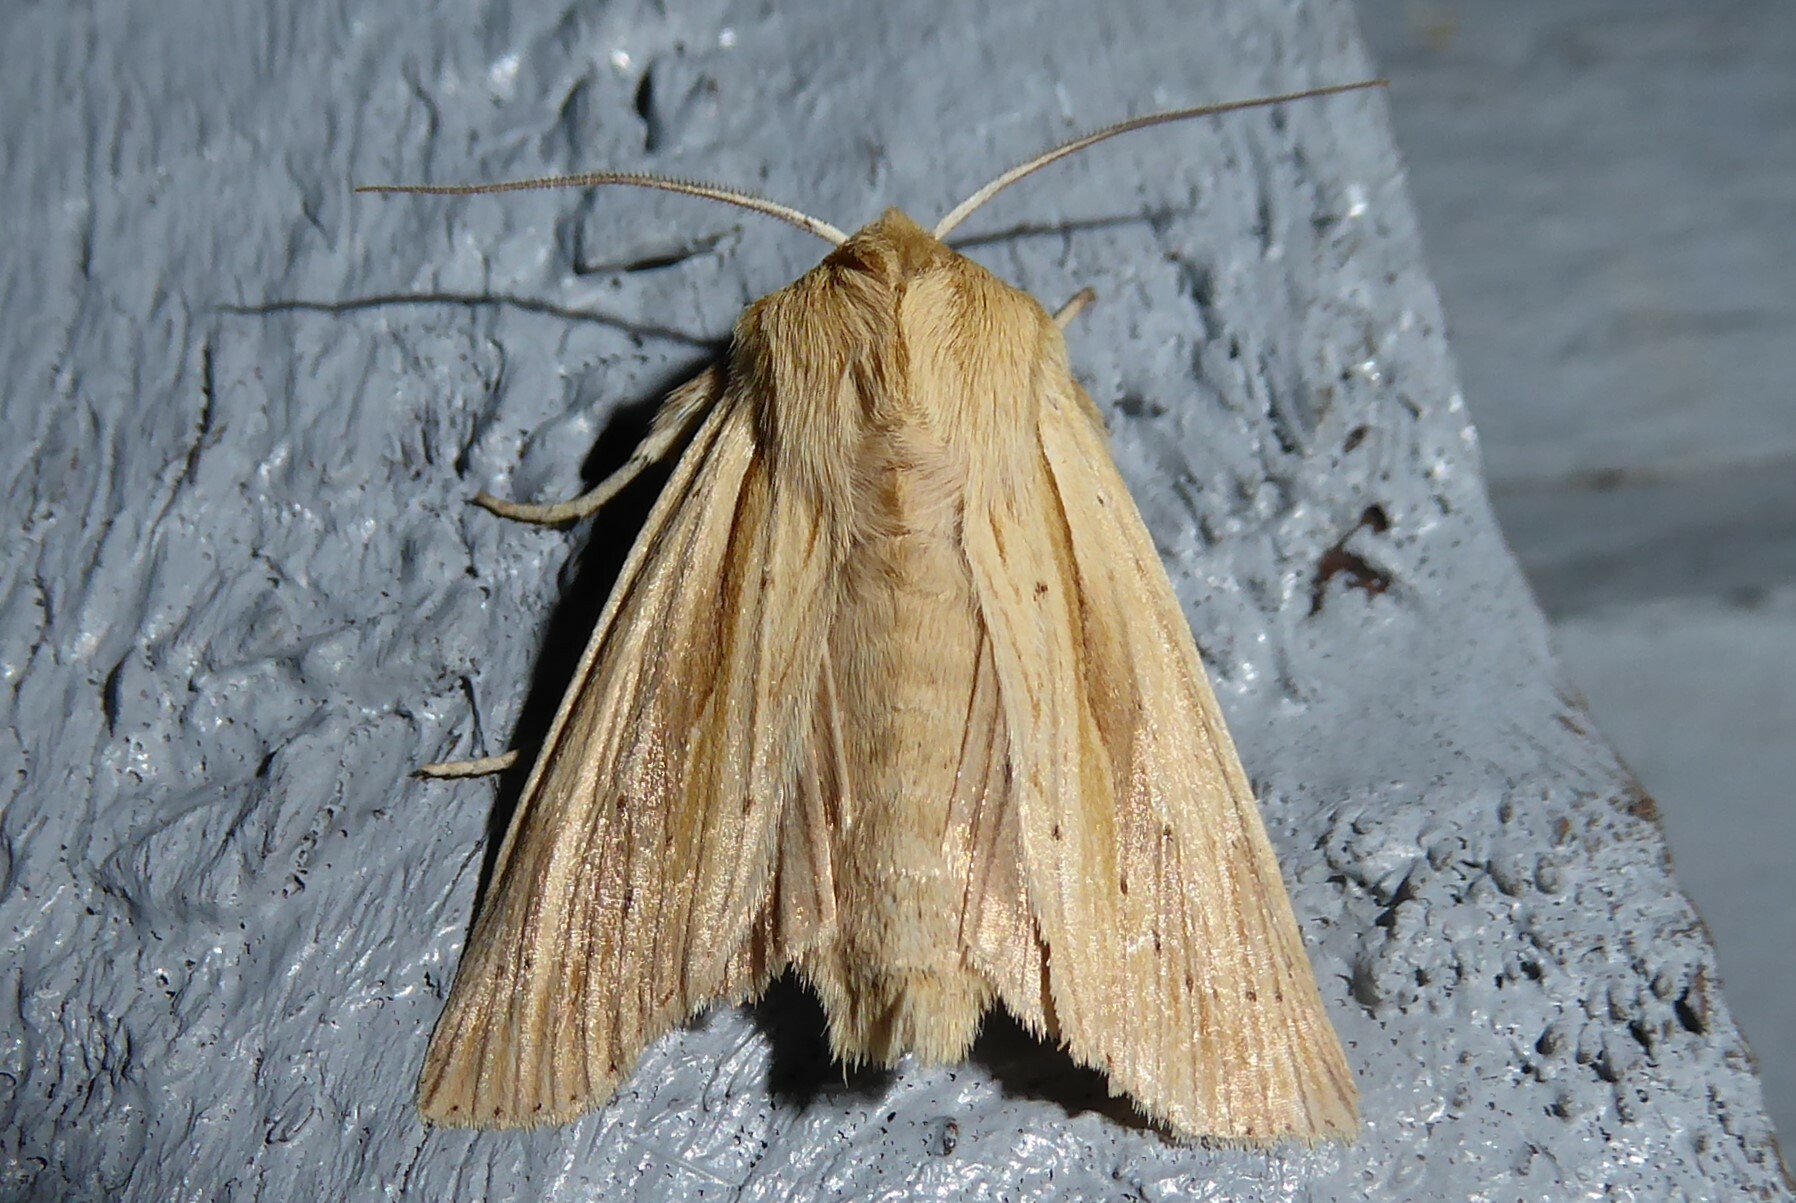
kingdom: Animalia
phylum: Arthropoda
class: Insecta
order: Lepidoptera
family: Noctuidae
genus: Ichneutica
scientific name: Ichneutica semivittata
